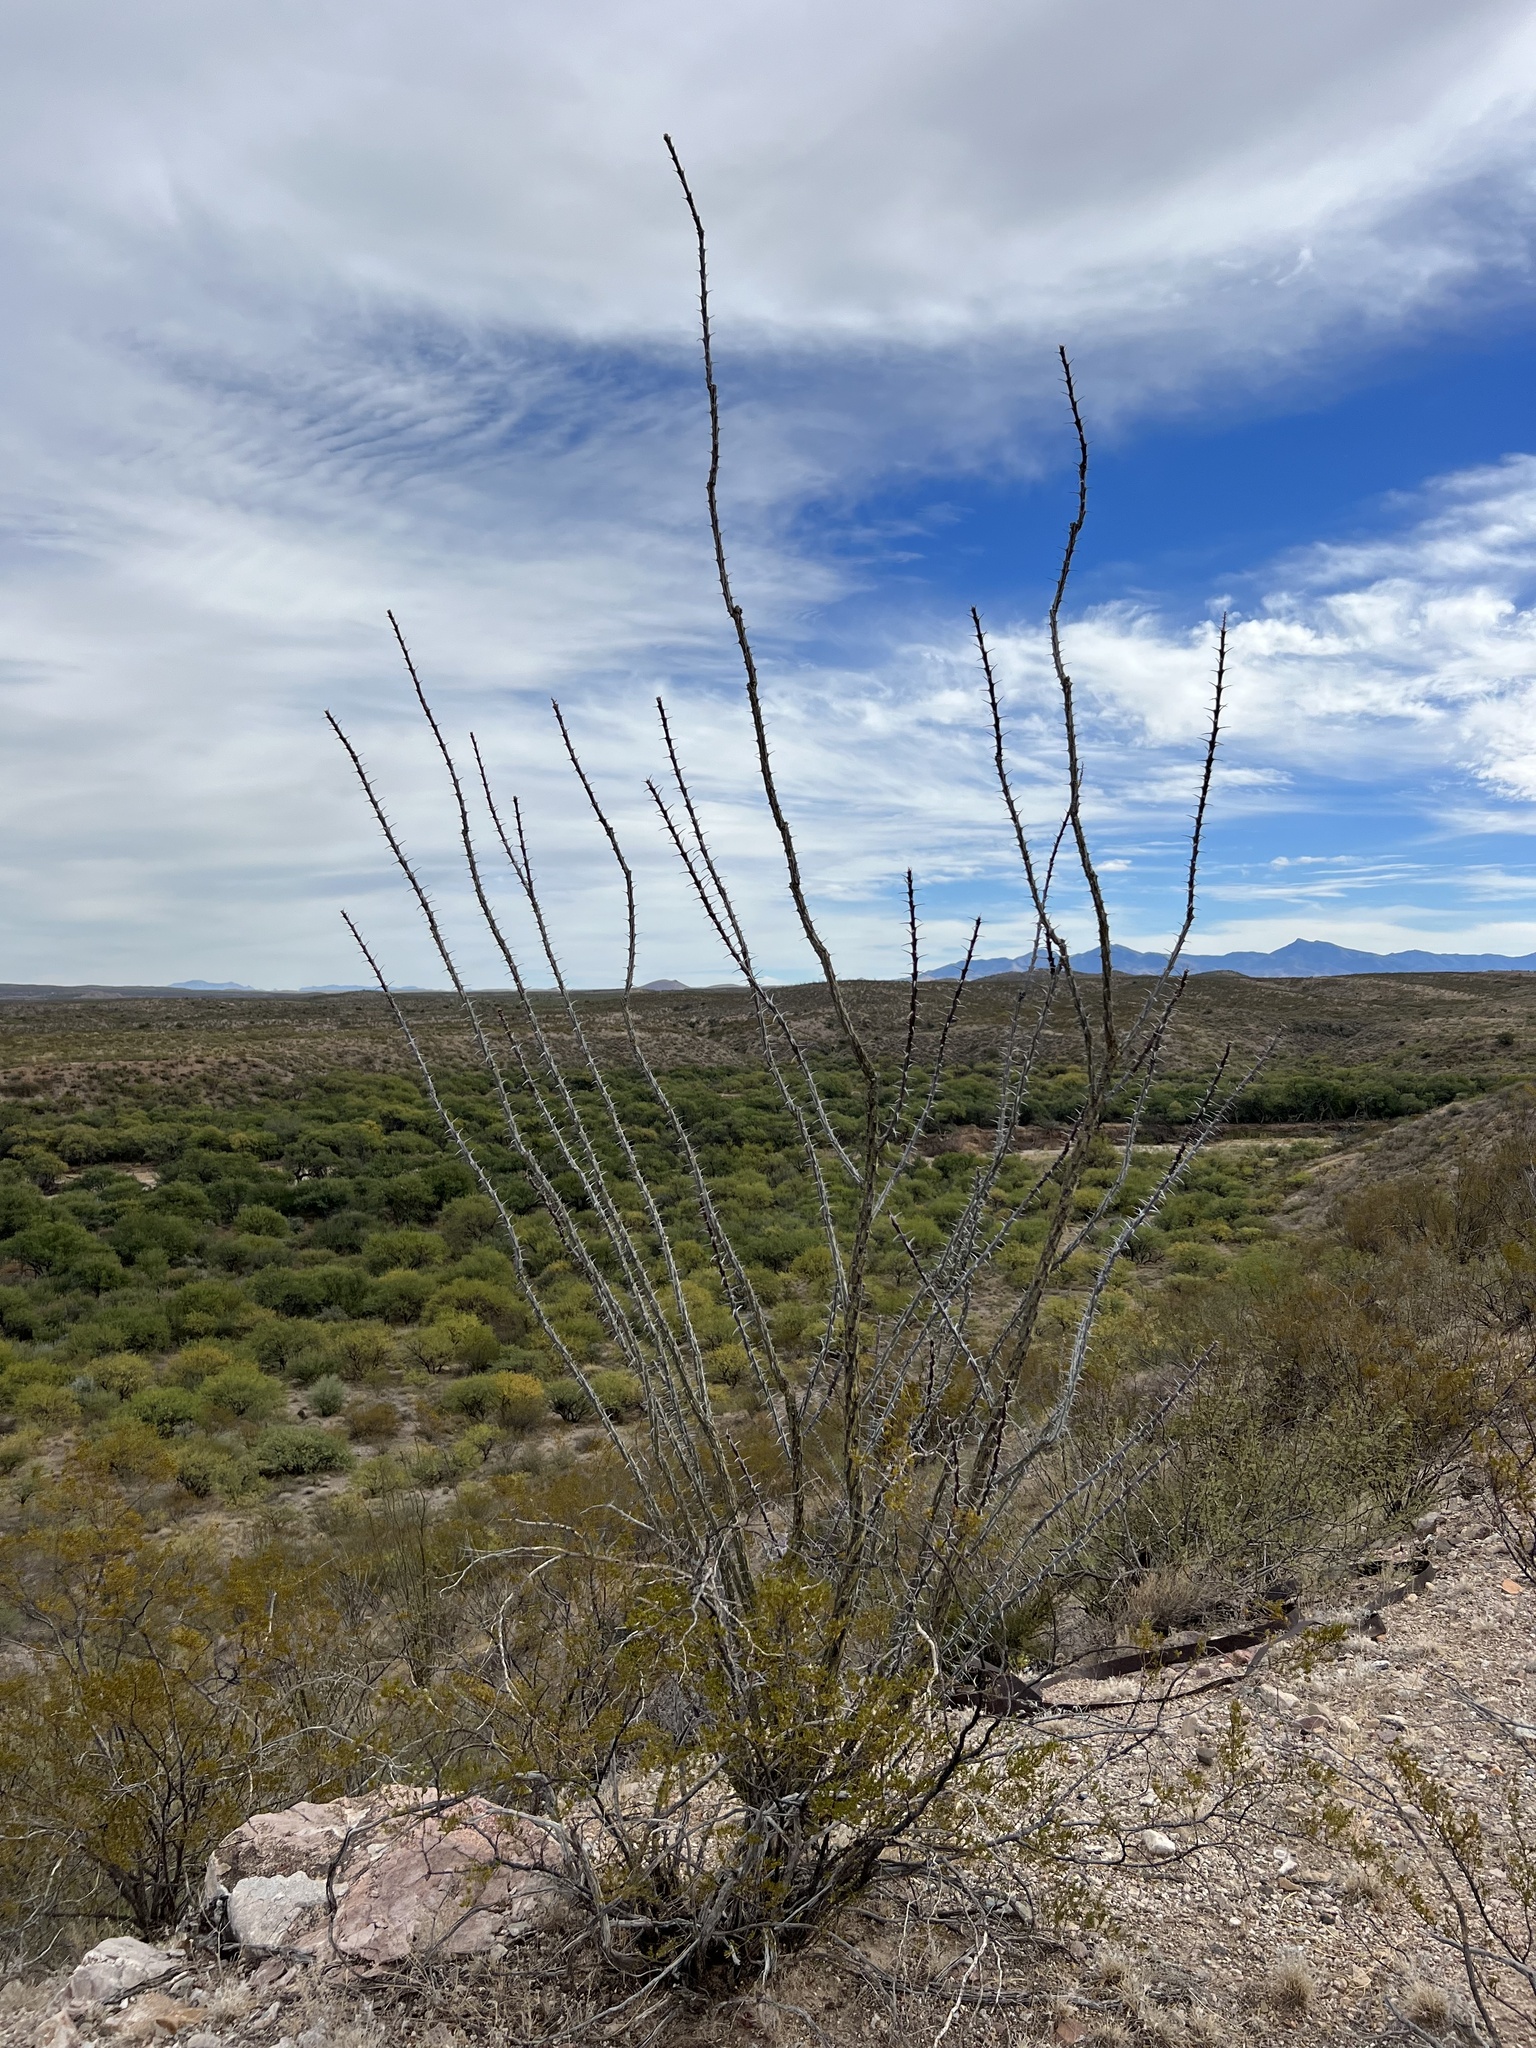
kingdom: Plantae
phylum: Tracheophyta
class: Magnoliopsida
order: Ericales
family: Fouquieriaceae
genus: Fouquieria
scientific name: Fouquieria splendens
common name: Vine-cactus
